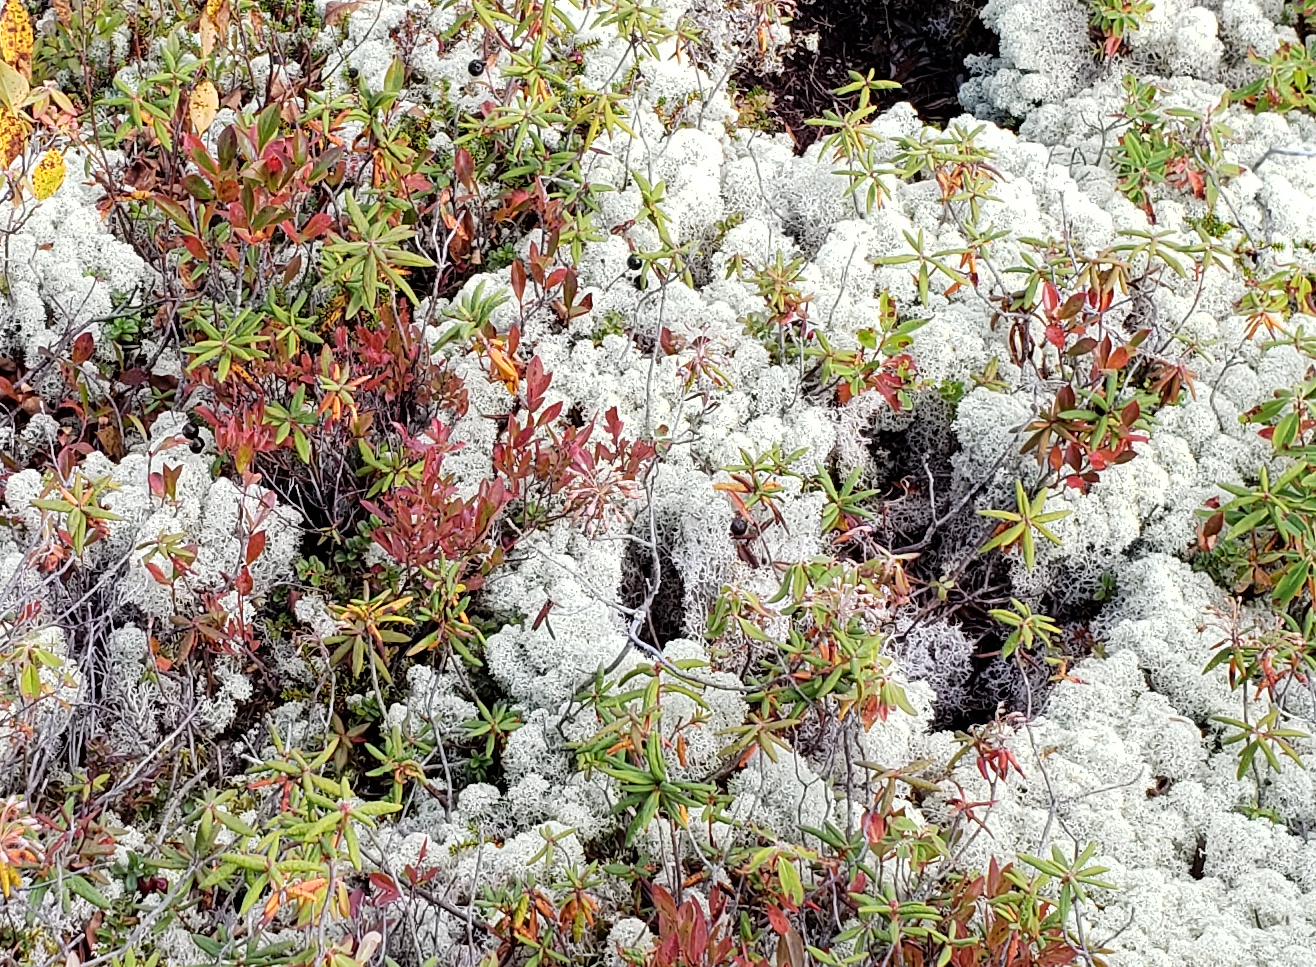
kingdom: Fungi
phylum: Ascomycota
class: Lecanoromycetes
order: Lecanorales
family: Cladoniaceae
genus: Cladonia
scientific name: Cladonia stellaris
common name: Star-tipped reindeer lichen
